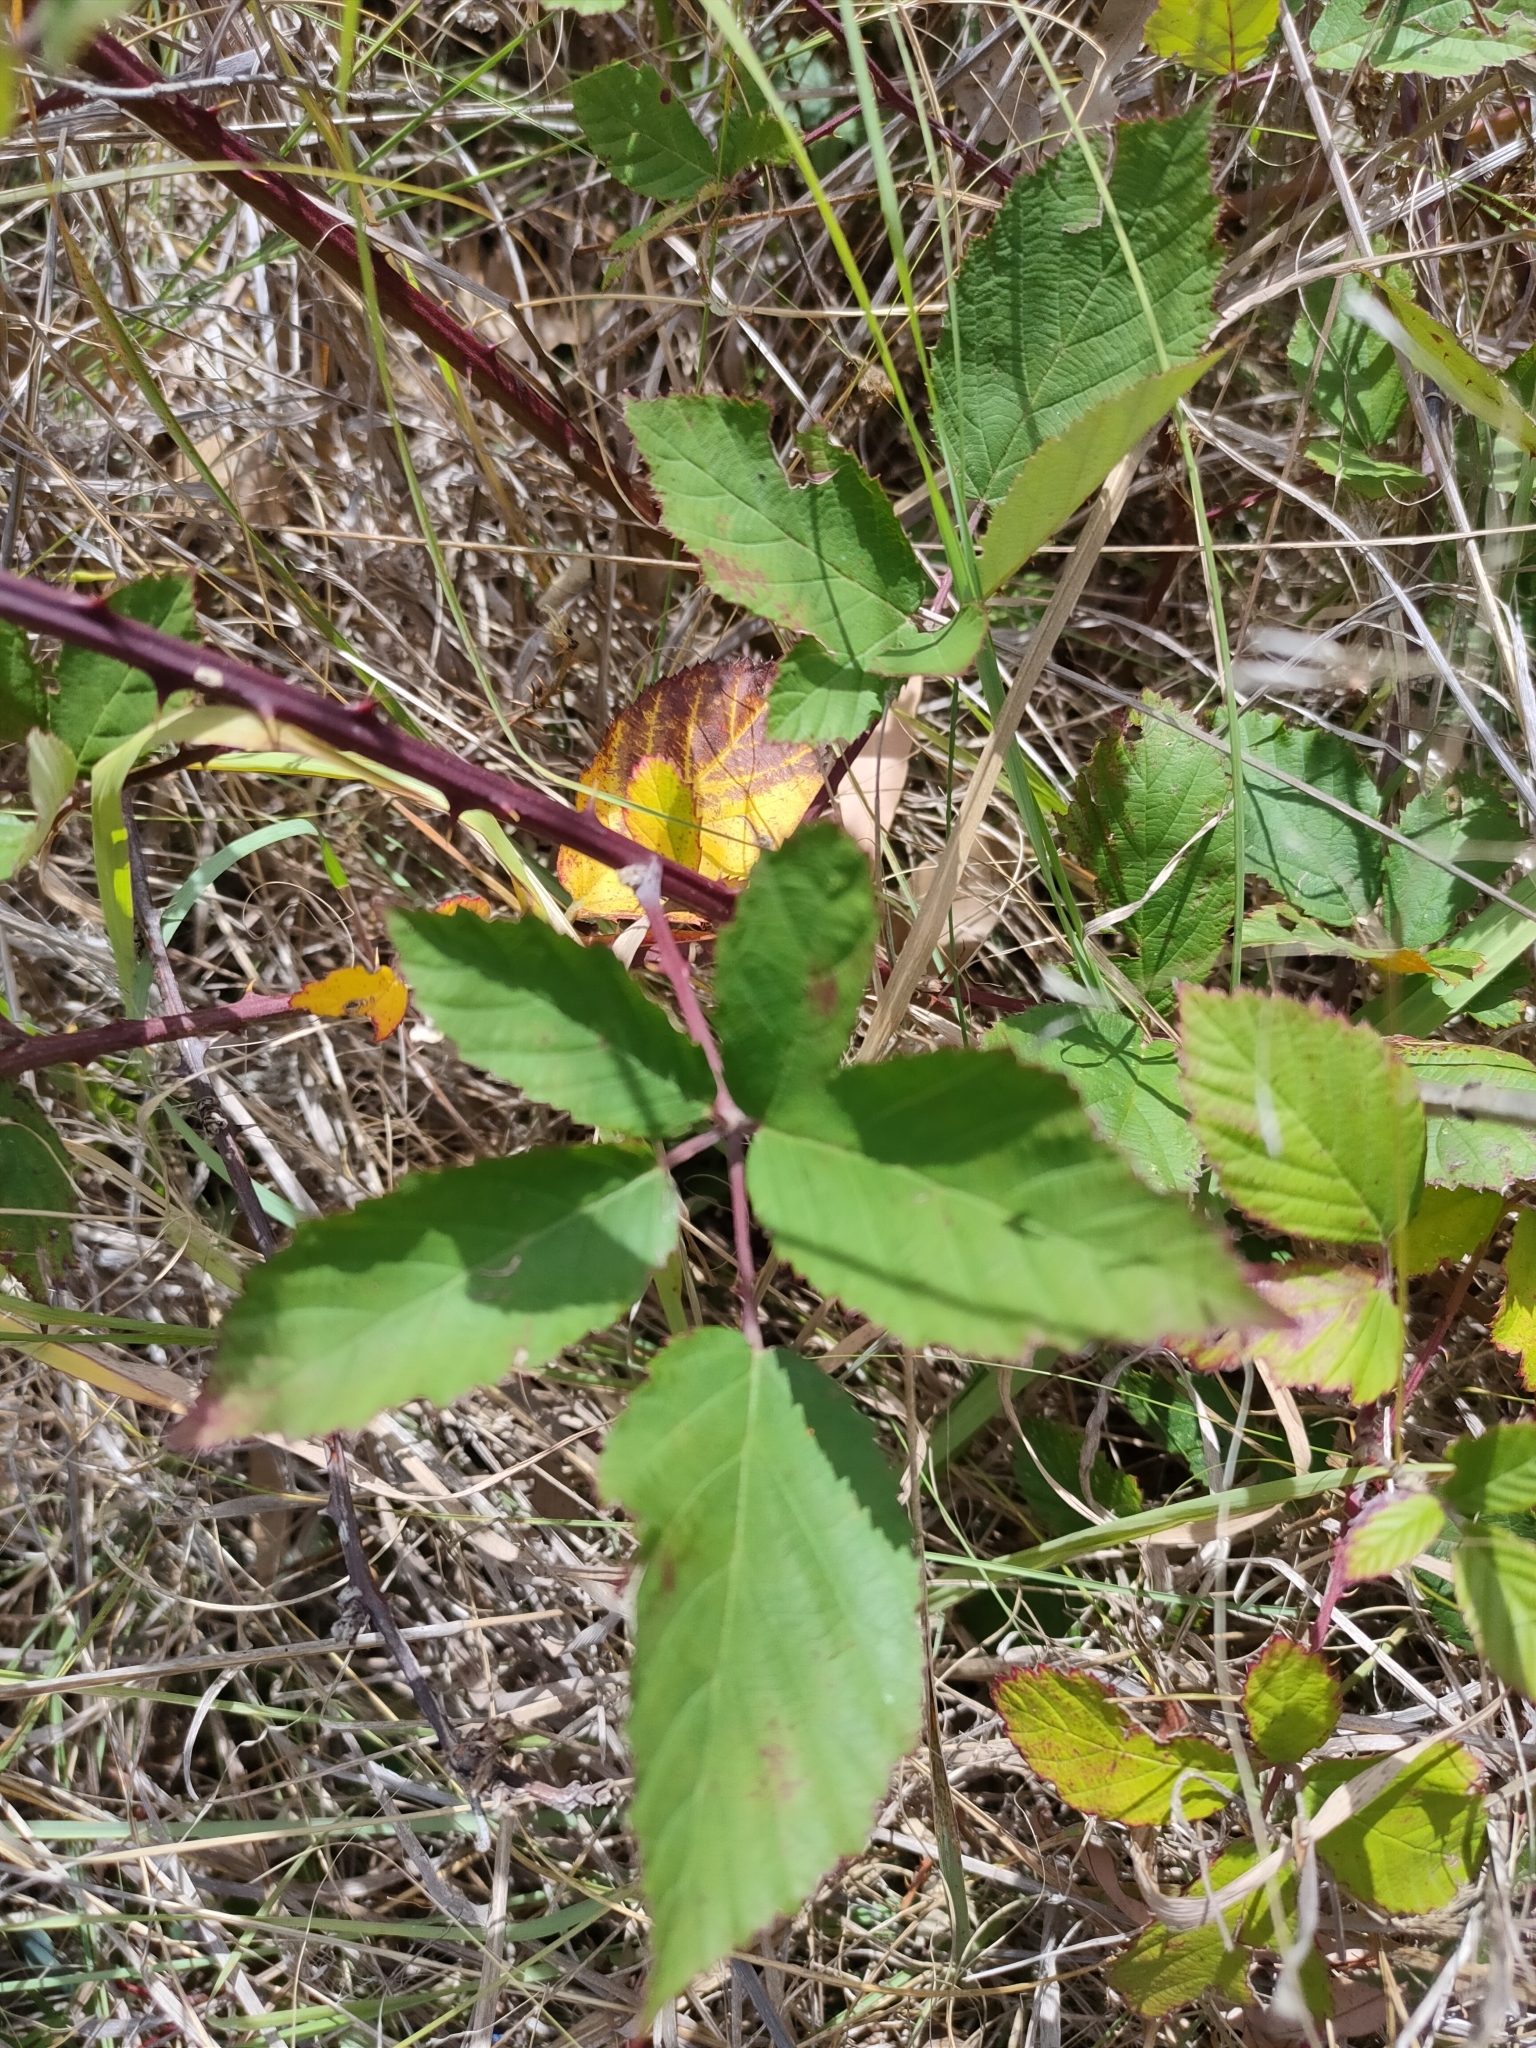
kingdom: Plantae
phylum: Tracheophyta
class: Magnoliopsida
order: Rosales
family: Rosaceae
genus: Rubus
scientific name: Rubus grabowskii
